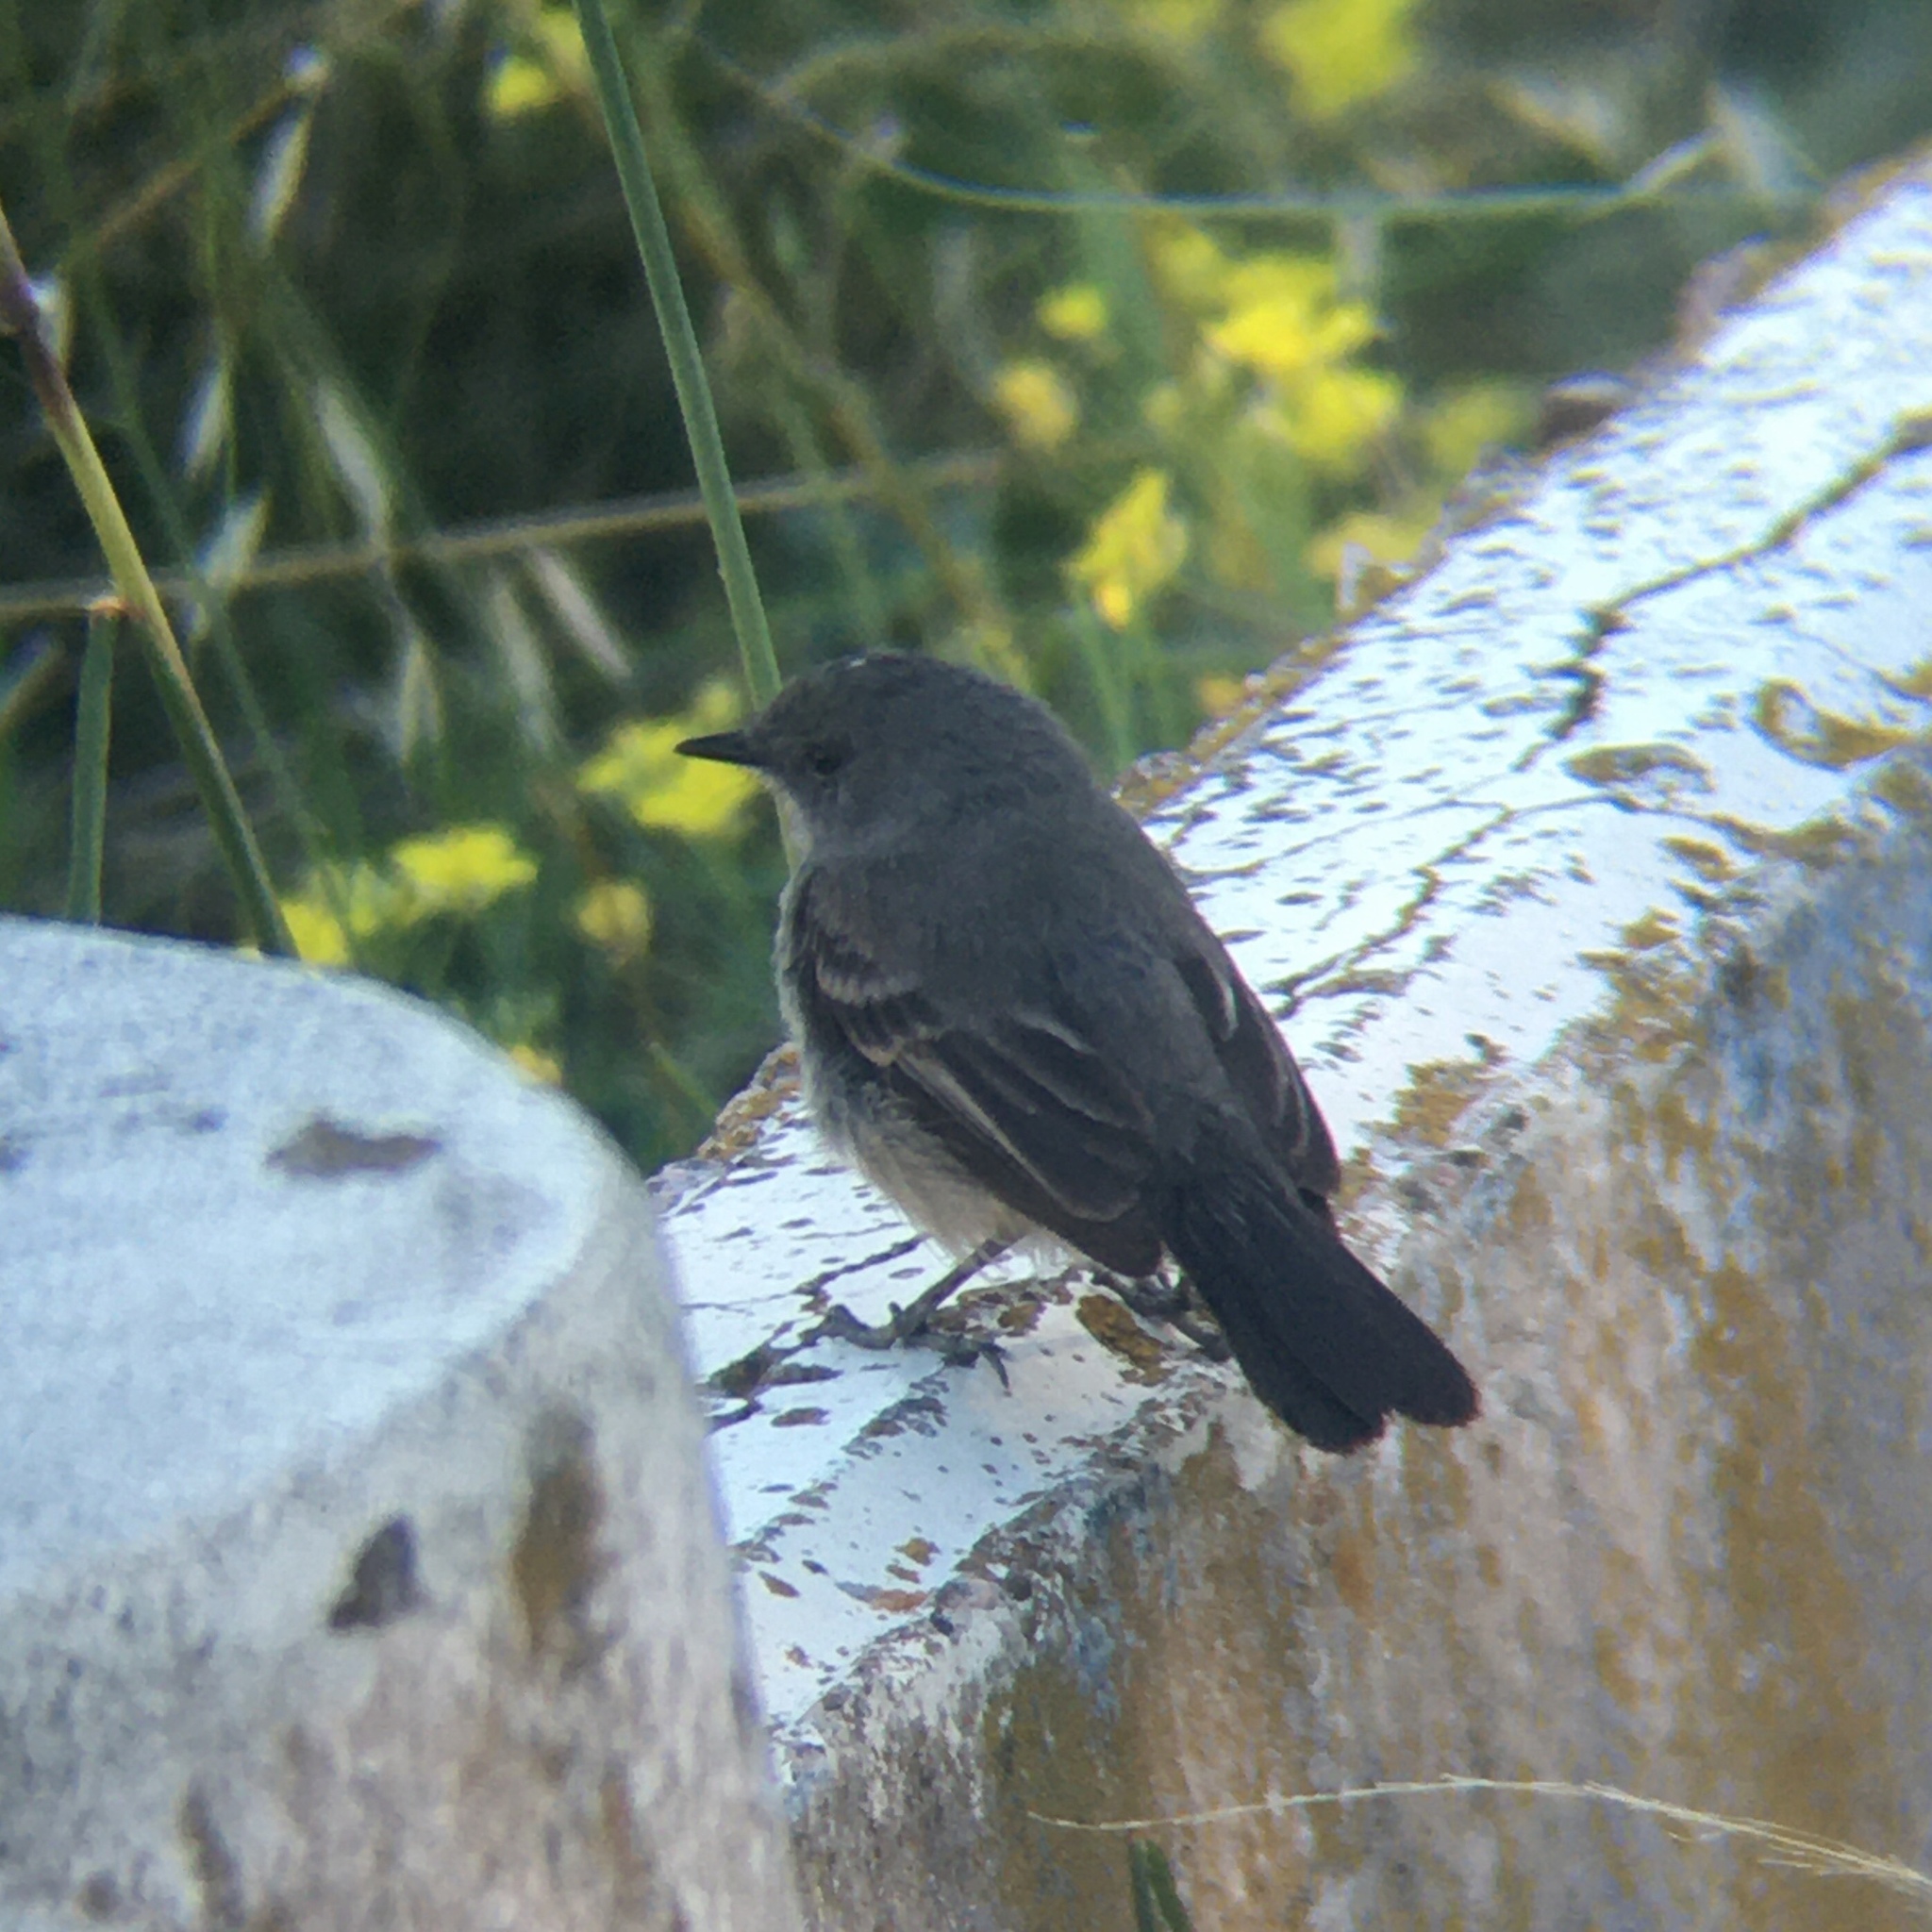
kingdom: Animalia
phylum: Chordata
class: Aves
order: Passeriformes
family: Tyrannidae
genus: Serpophaga
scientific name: Serpophaga nigricans
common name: Sooty tyrannulet
